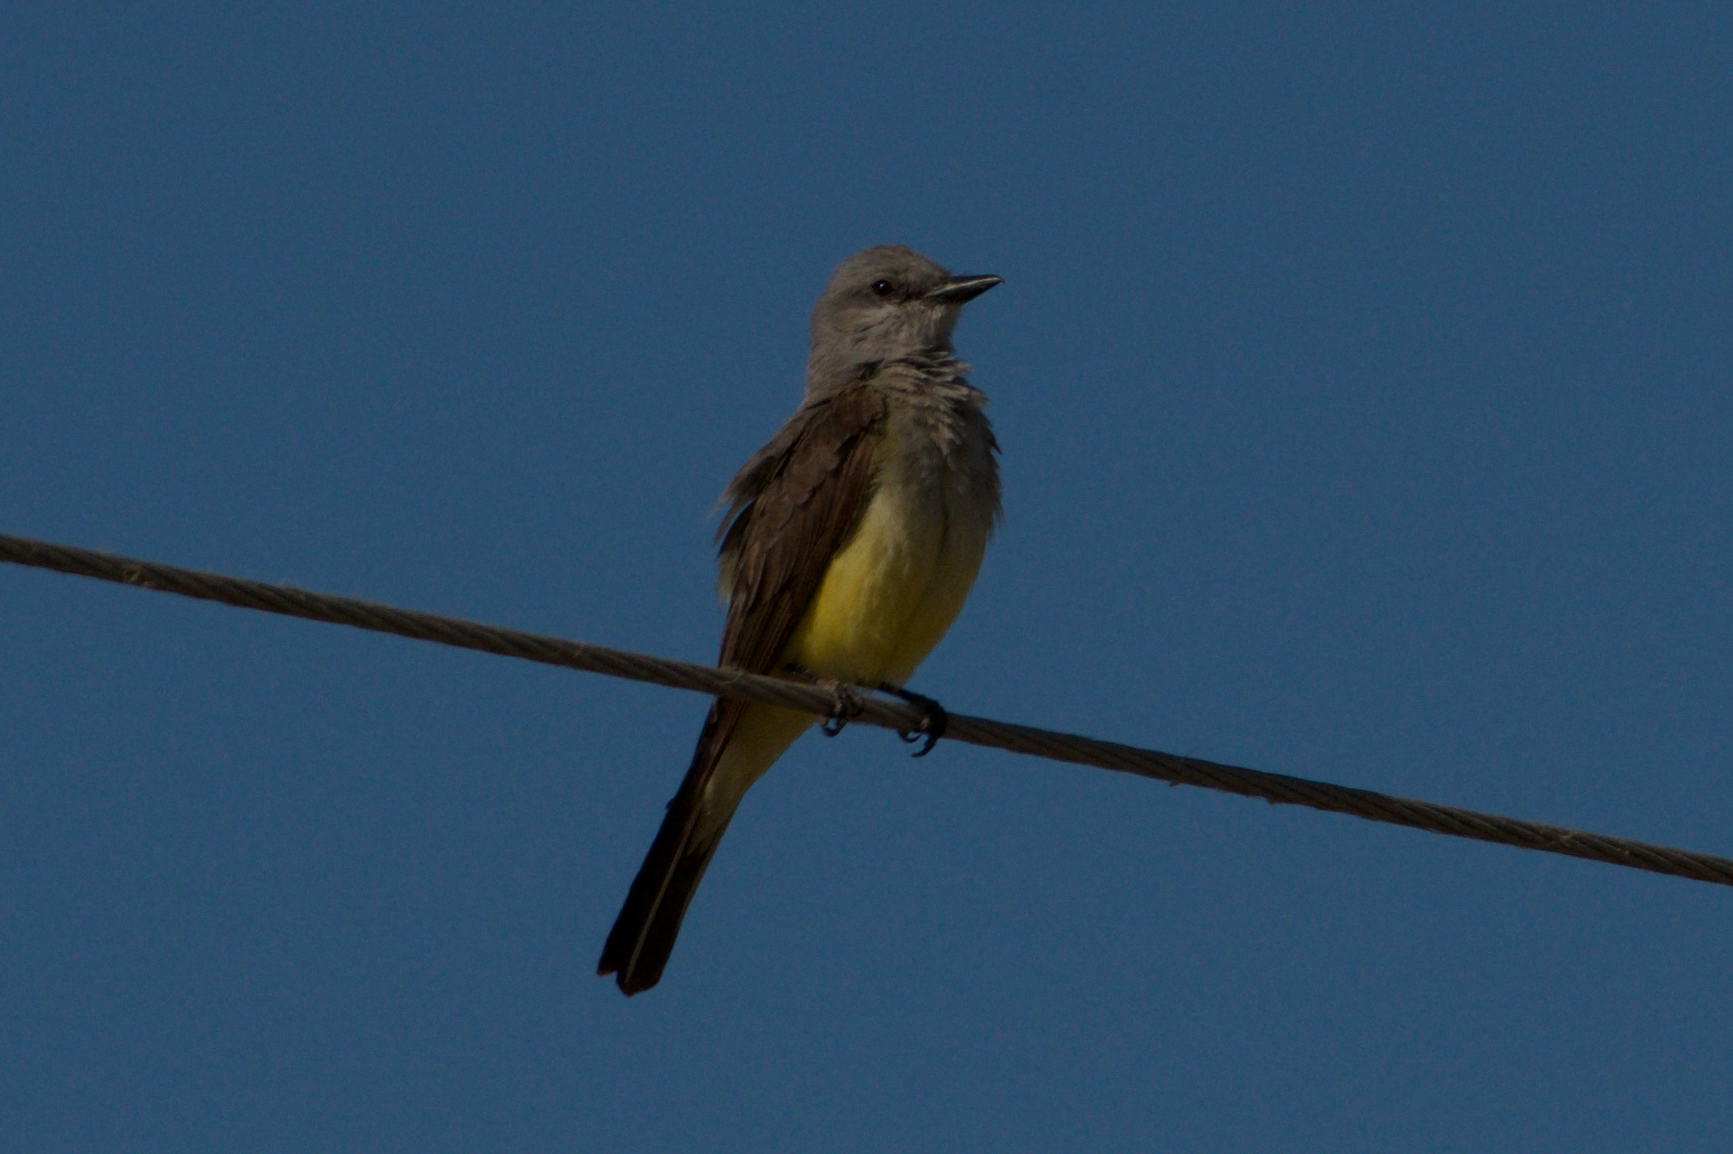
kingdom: Animalia
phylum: Chordata
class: Aves
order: Passeriformes
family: Tyrannidae
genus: Tyrannus
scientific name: Tyrannus verticalis
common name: Western kingbird
